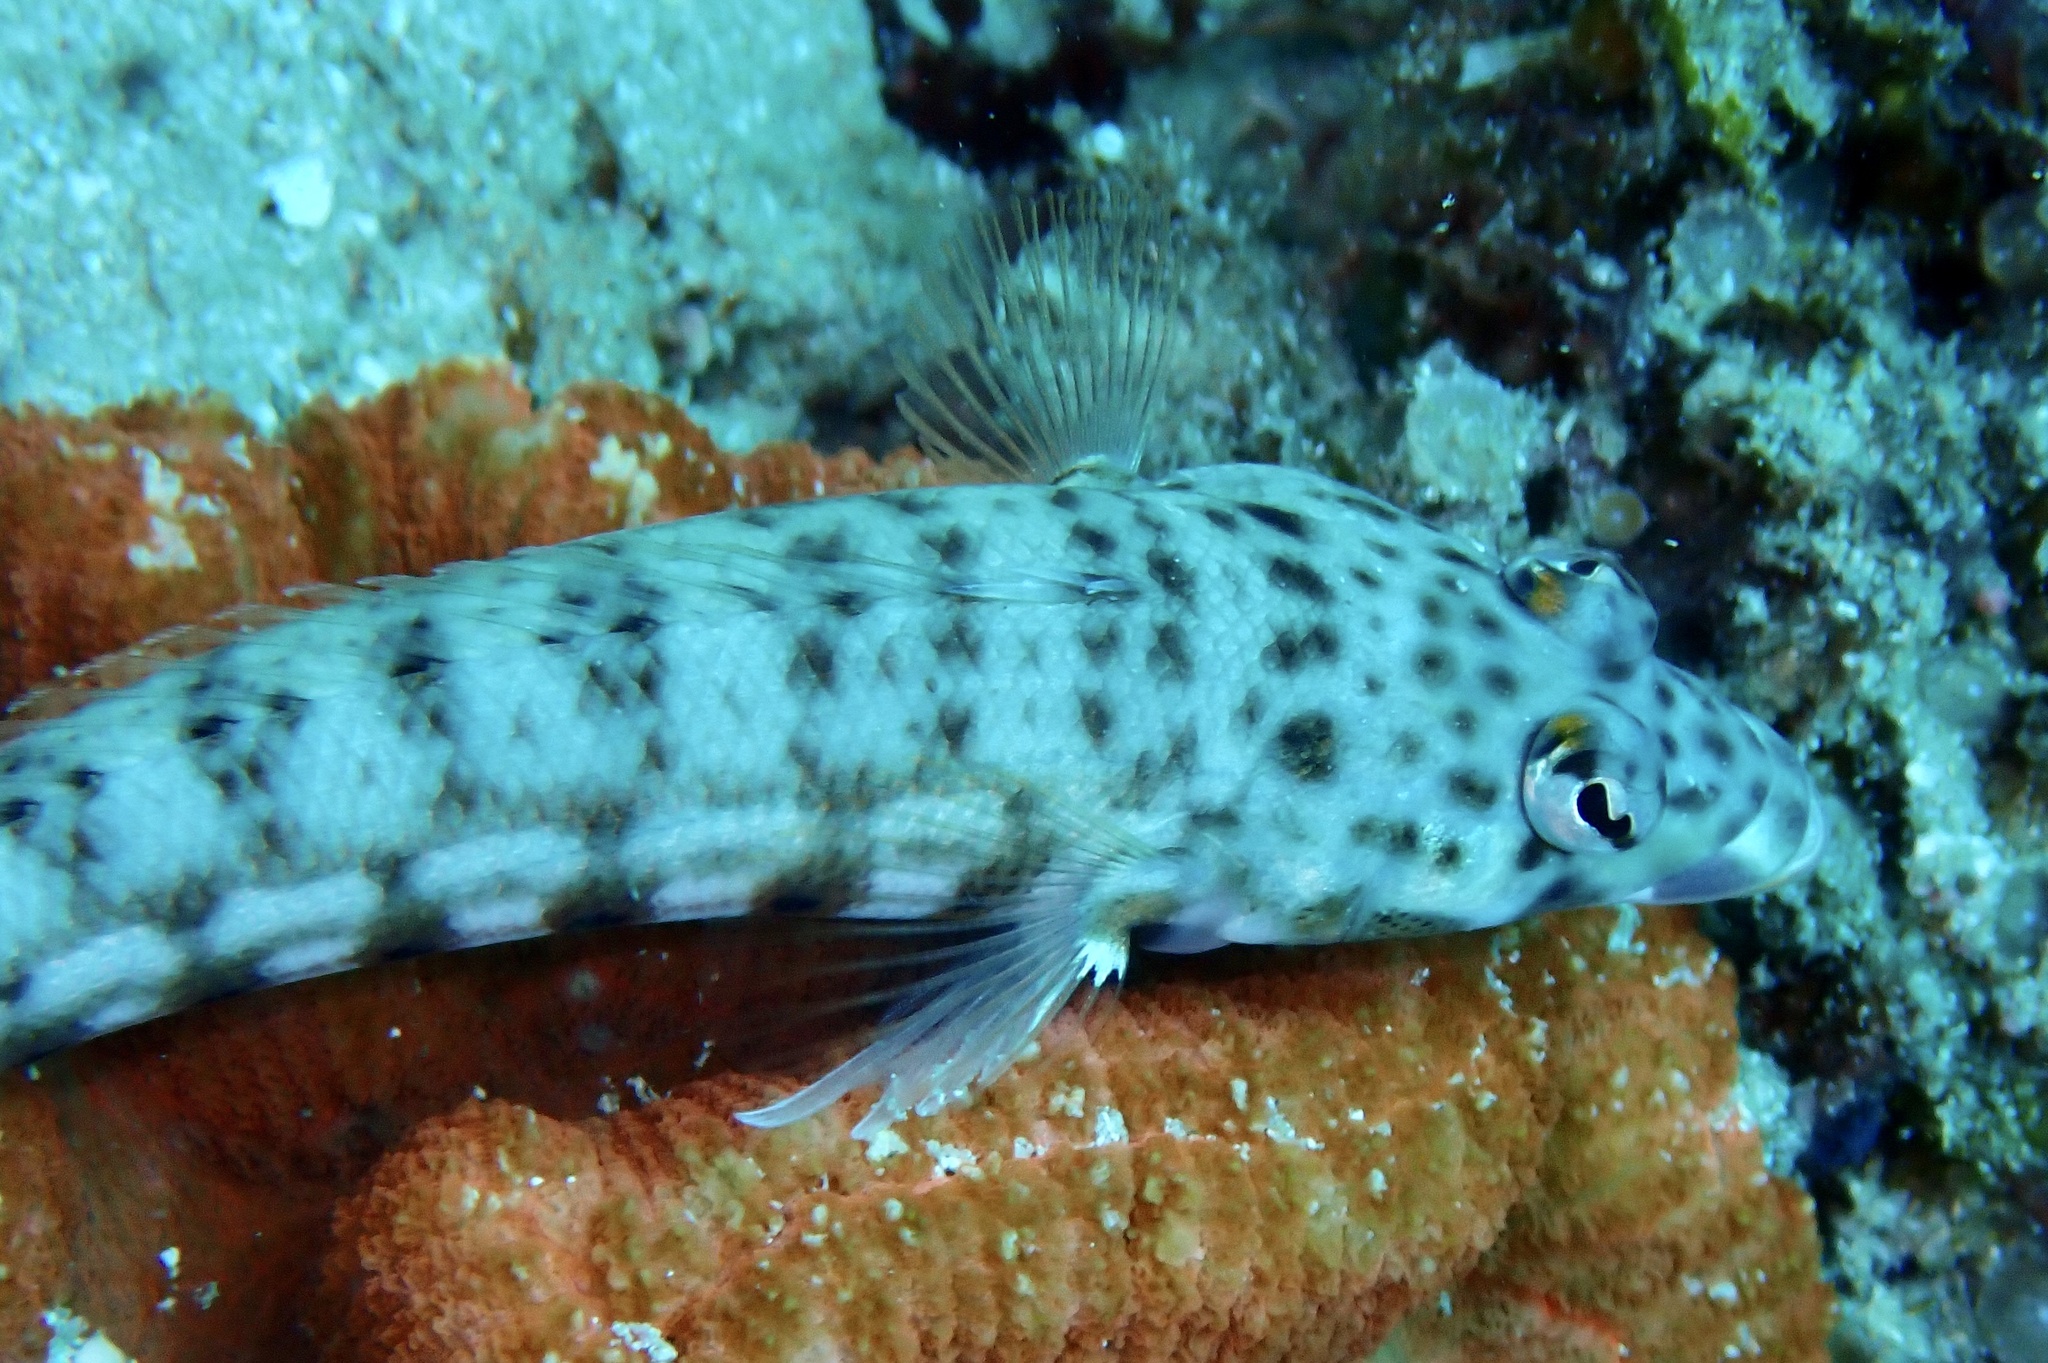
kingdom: Animalia
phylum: Chordata
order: Perciformes
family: Pinguipedidae
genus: Parapercis
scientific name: Parapercis clathrata
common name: Latticed sandperch
